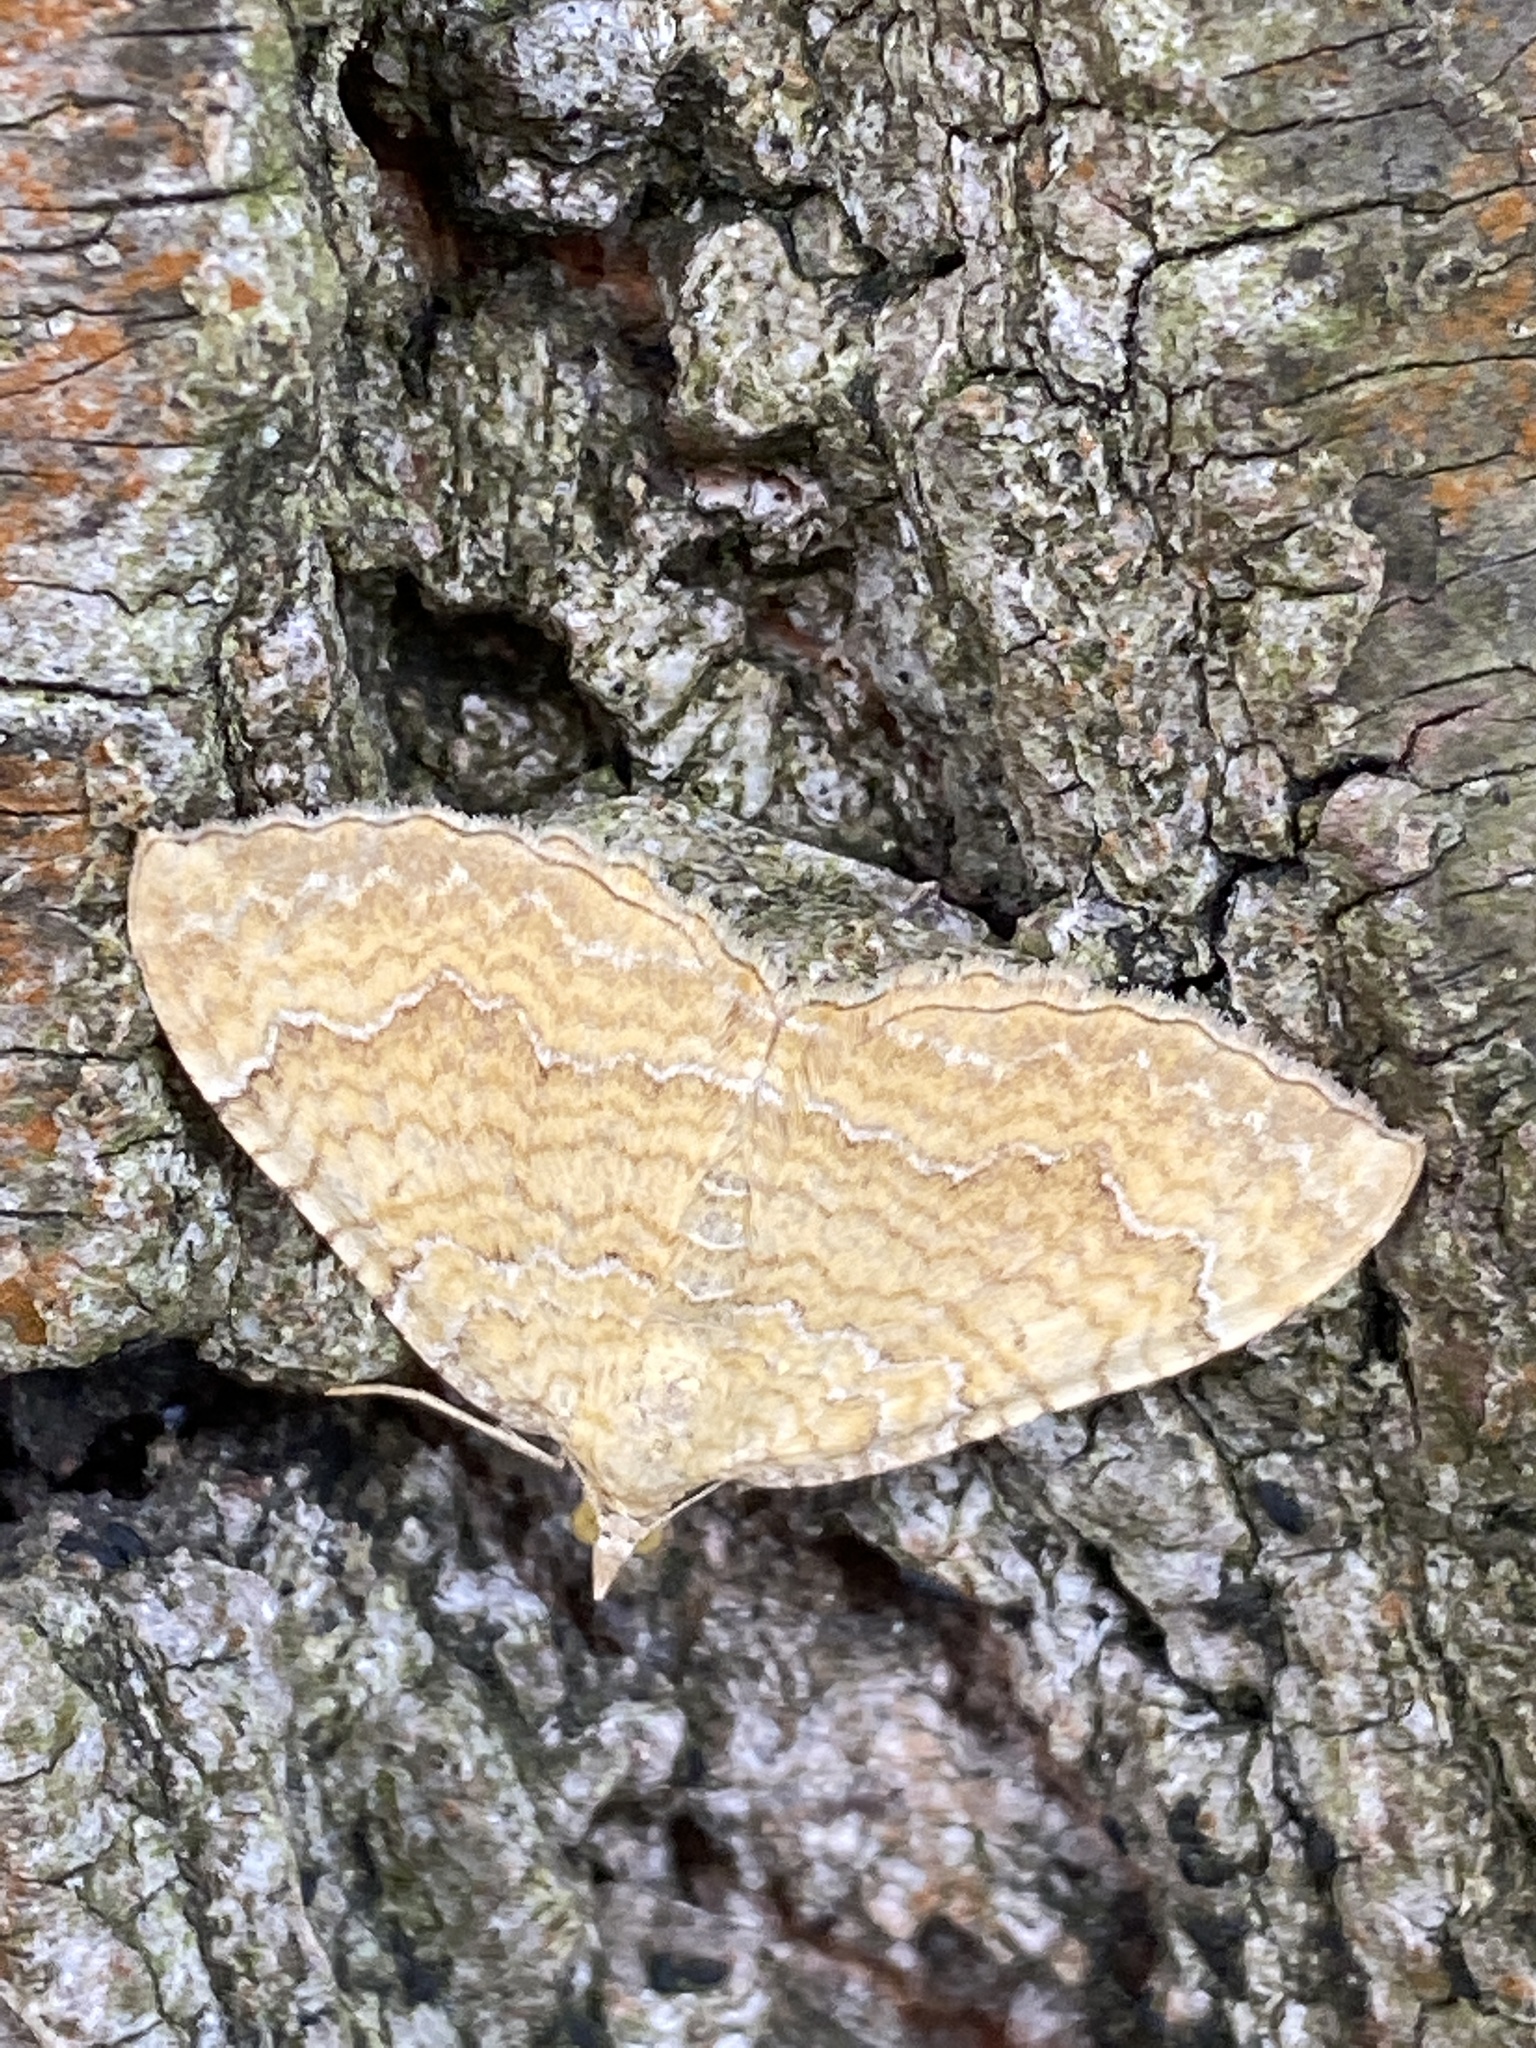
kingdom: Animalia
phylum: Arthropoda
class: Insecta
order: Lepidoptera
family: Geometridae
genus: Camptogramma
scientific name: Camptogramma bilineata
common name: Yellow shell
